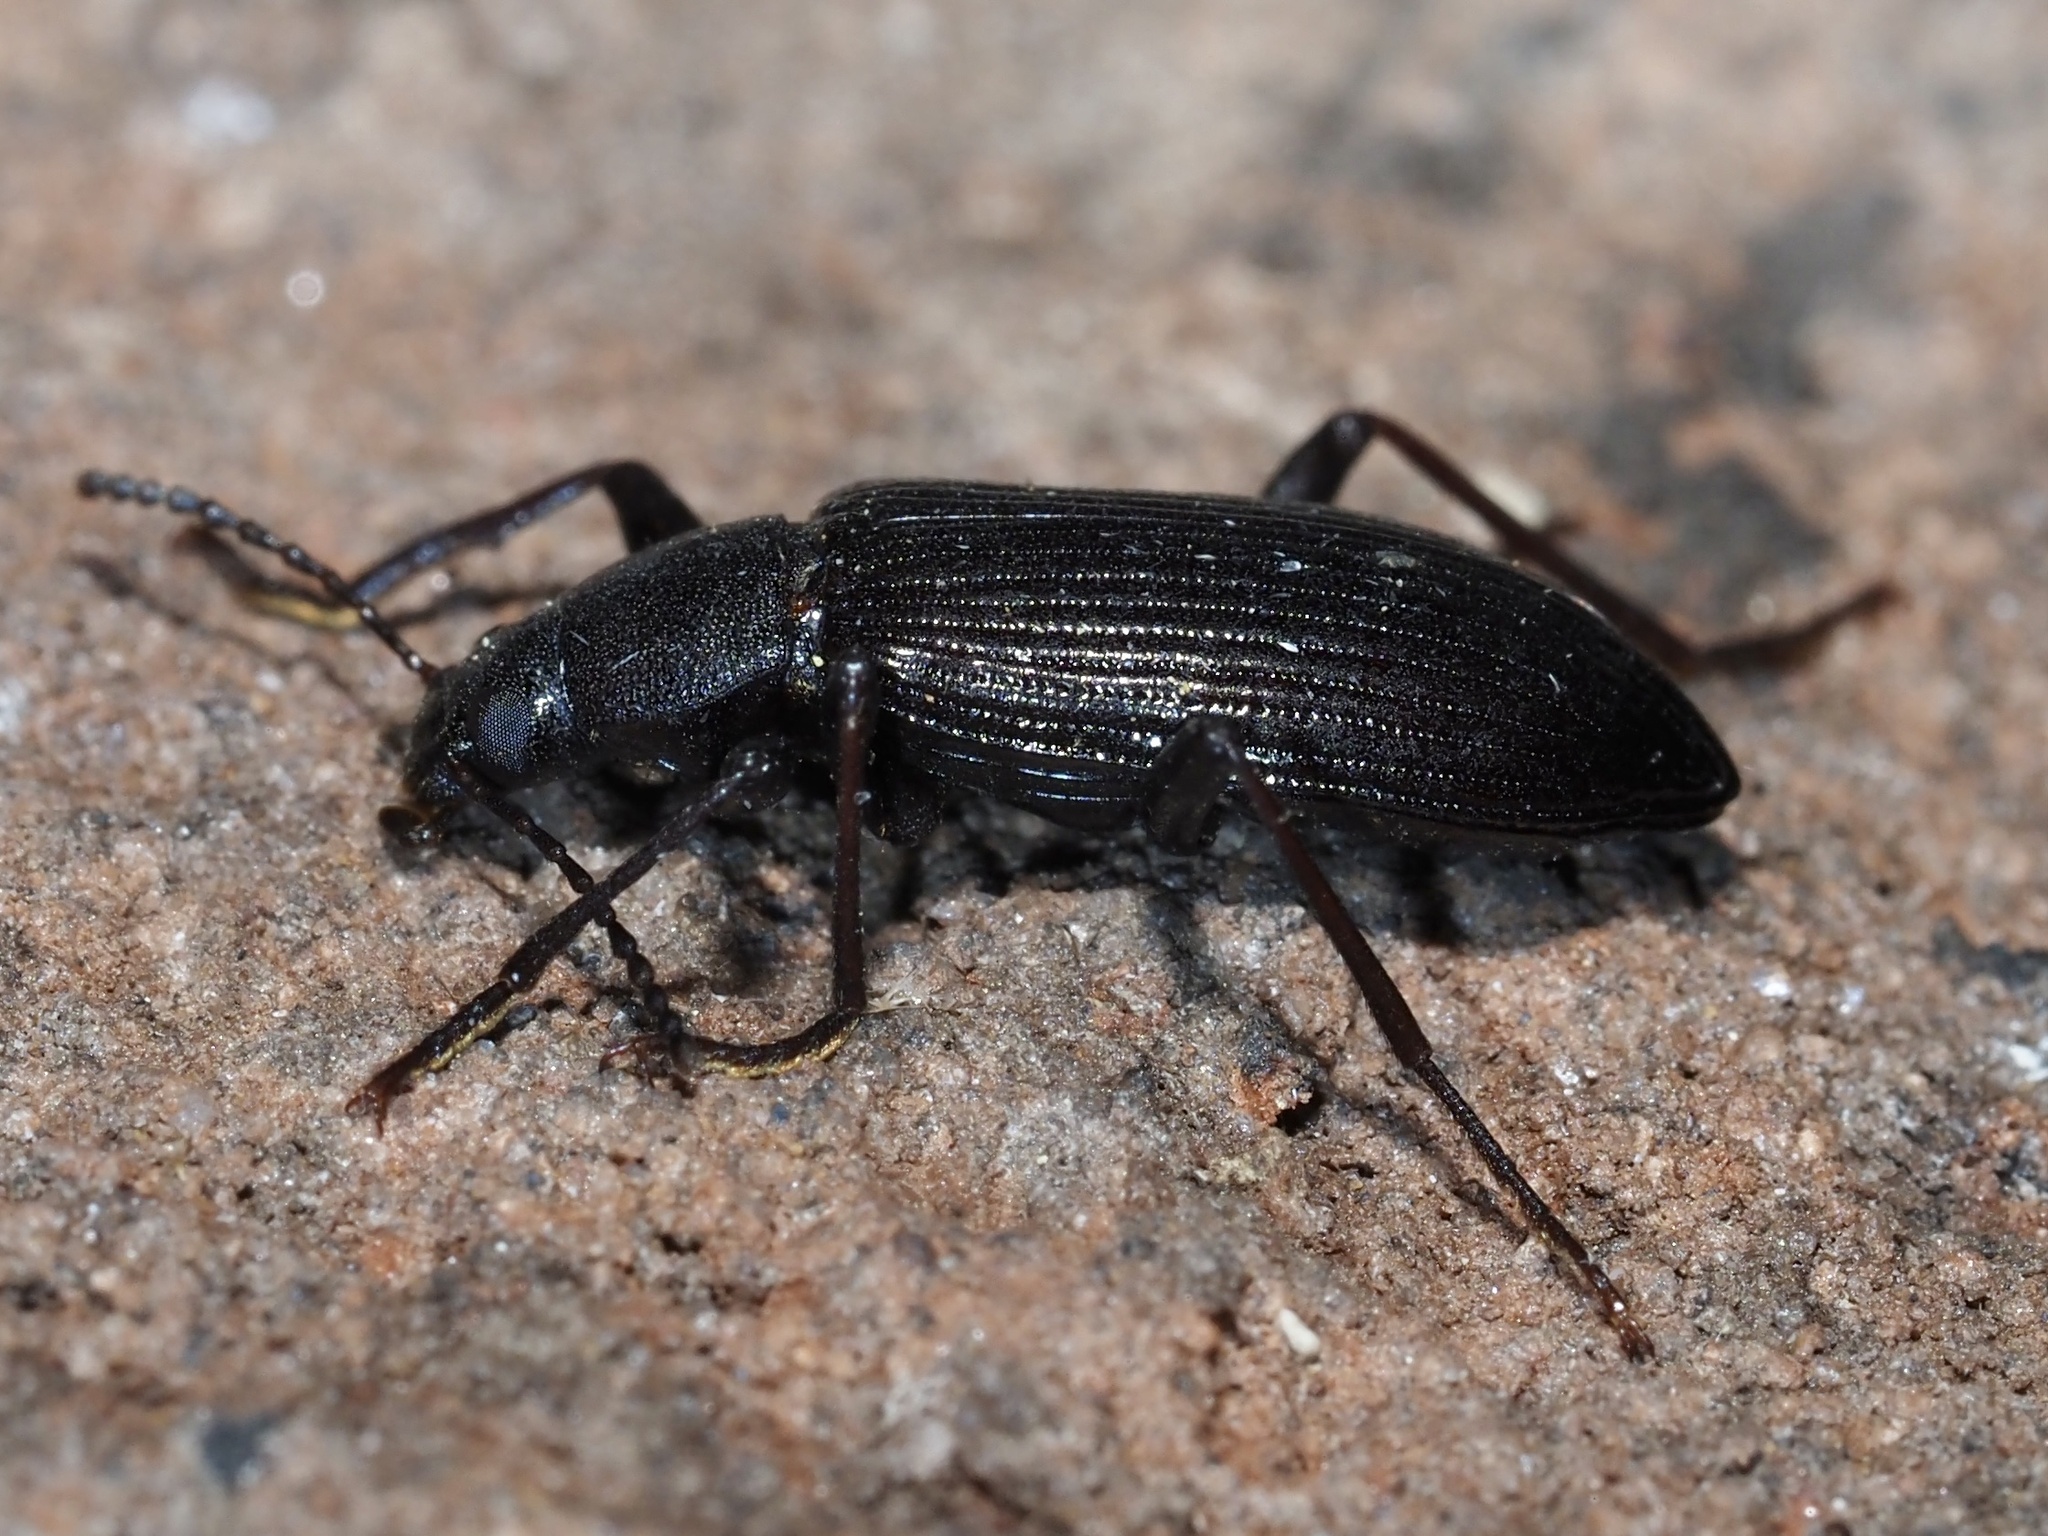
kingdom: Animalia
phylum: Arthropoda
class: Insecta
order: Coleoptera
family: Tenebrionidae
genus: Xylopinus
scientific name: Xylopinus aenescens
